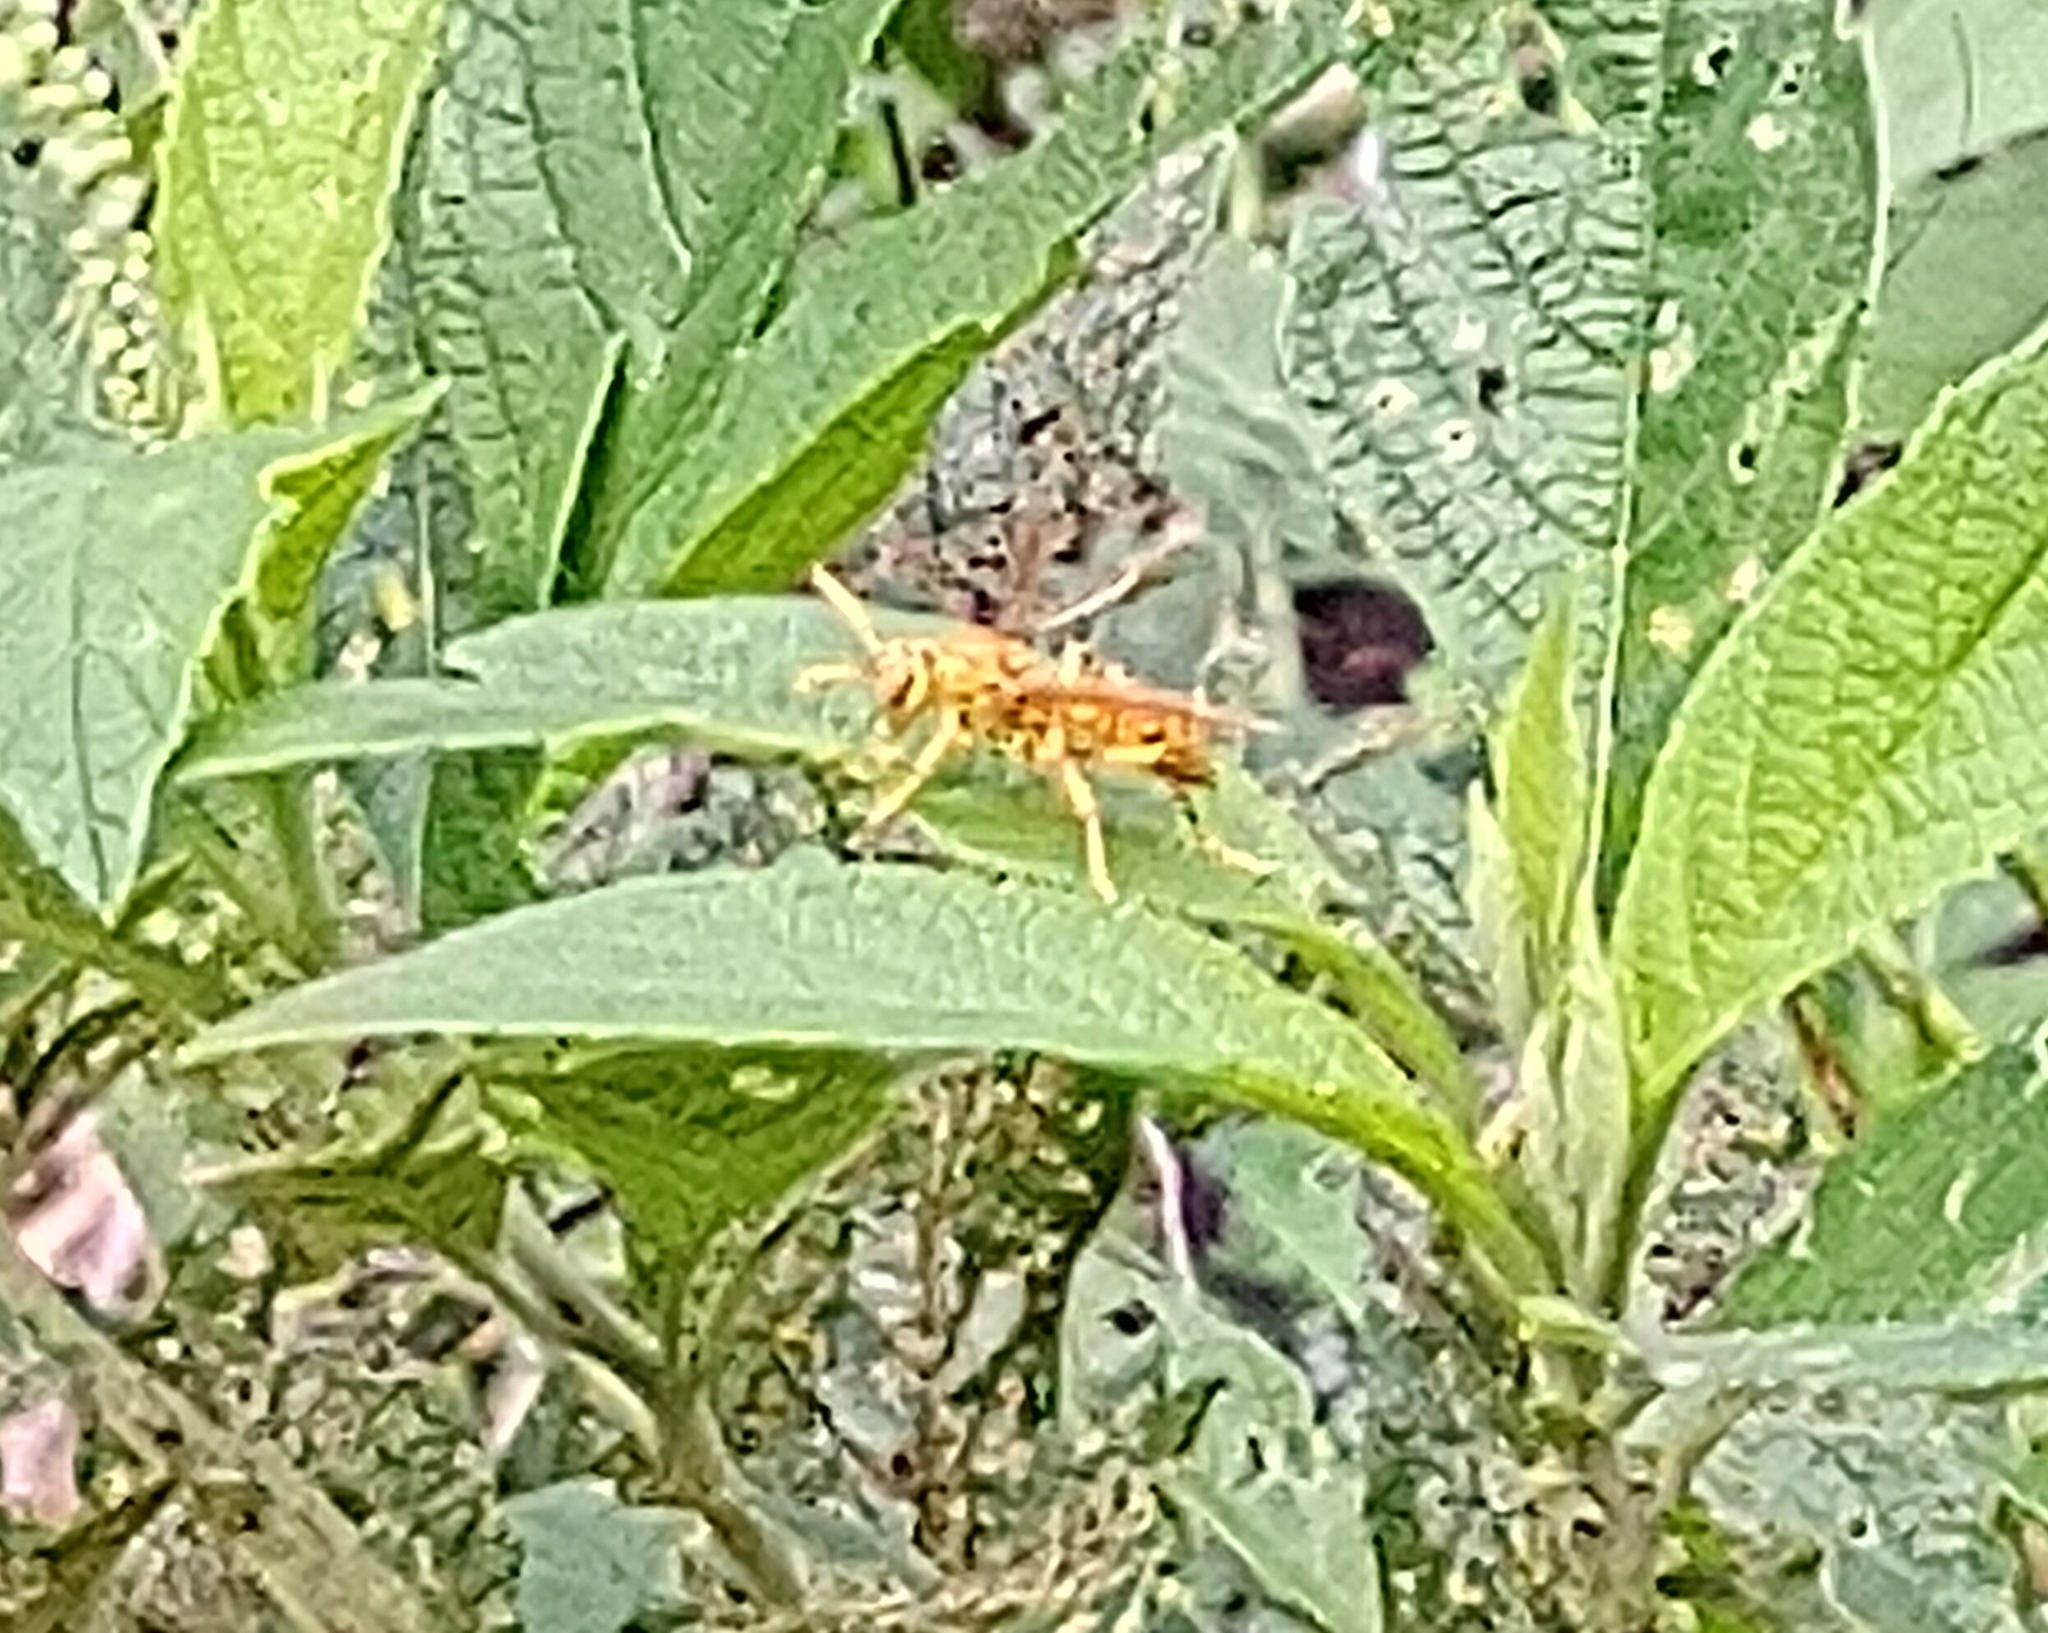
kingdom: Animalia
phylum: Arthropoda
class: Insecta
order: Hymenoptera
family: Eumenidae
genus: Polistes
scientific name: Polistes olivaceus
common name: Paper wasp
